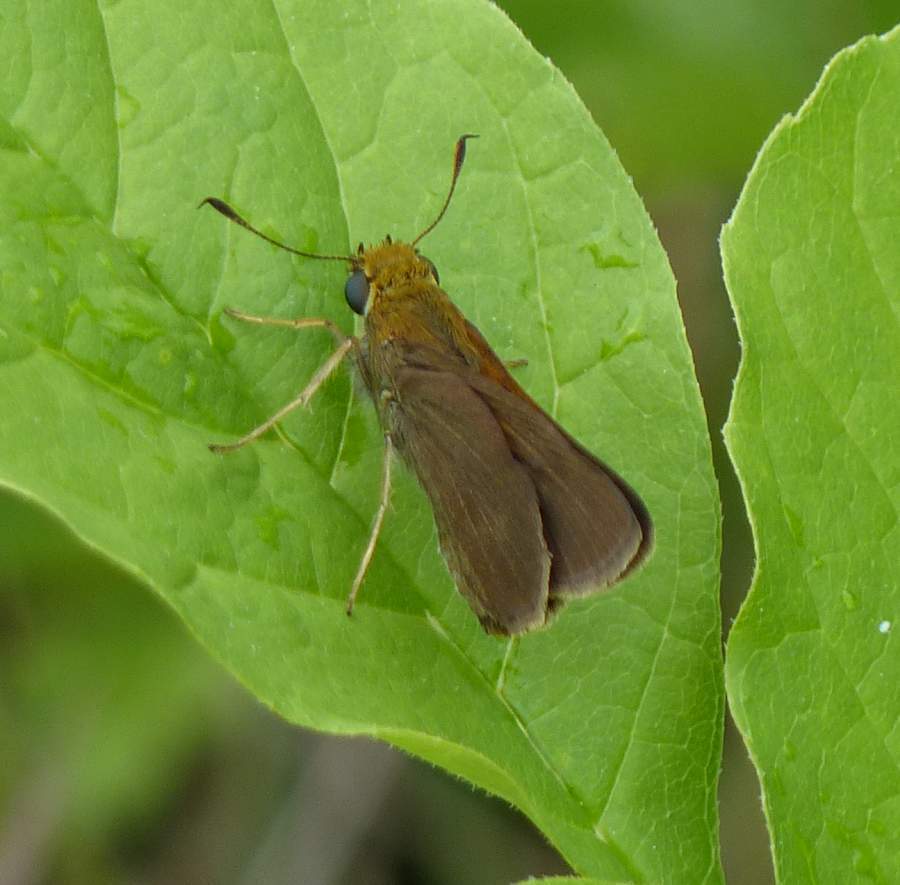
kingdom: Animalia
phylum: Arthropoda
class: Insecta
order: Lepidoptera
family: Hesperiidae
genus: Euphyes
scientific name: Euphyes vestris
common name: Dun skipper
